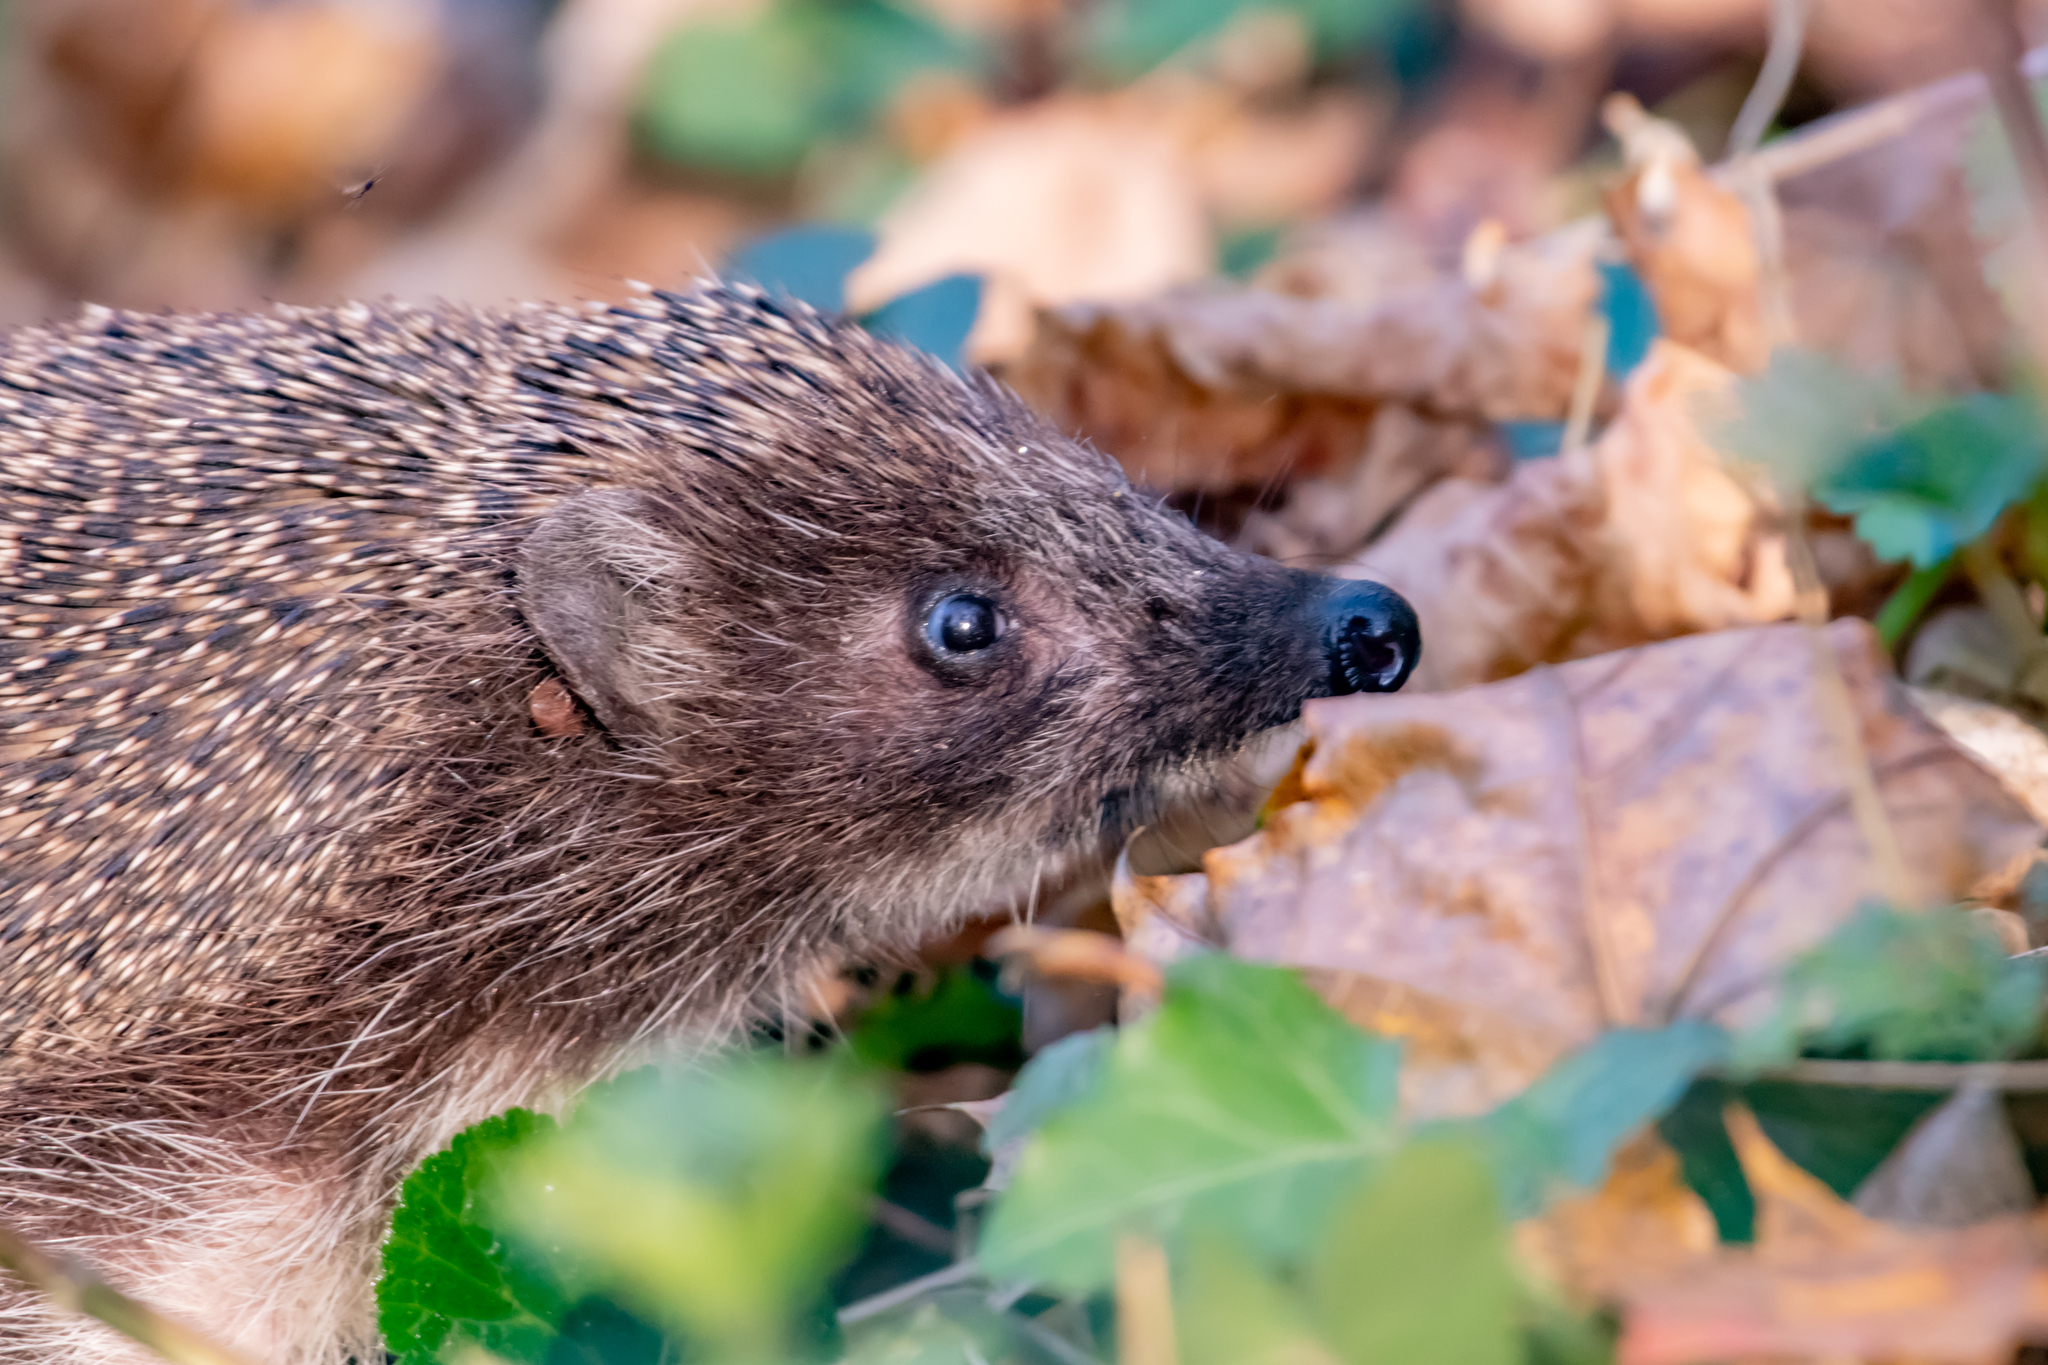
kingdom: Animalia
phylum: Chordata
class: Mammalia
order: Erinaceomorpha
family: Erinaceidae
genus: Erinaceus
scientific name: Erinaceus roumanicus
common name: Northern white-breasted hedgehog
